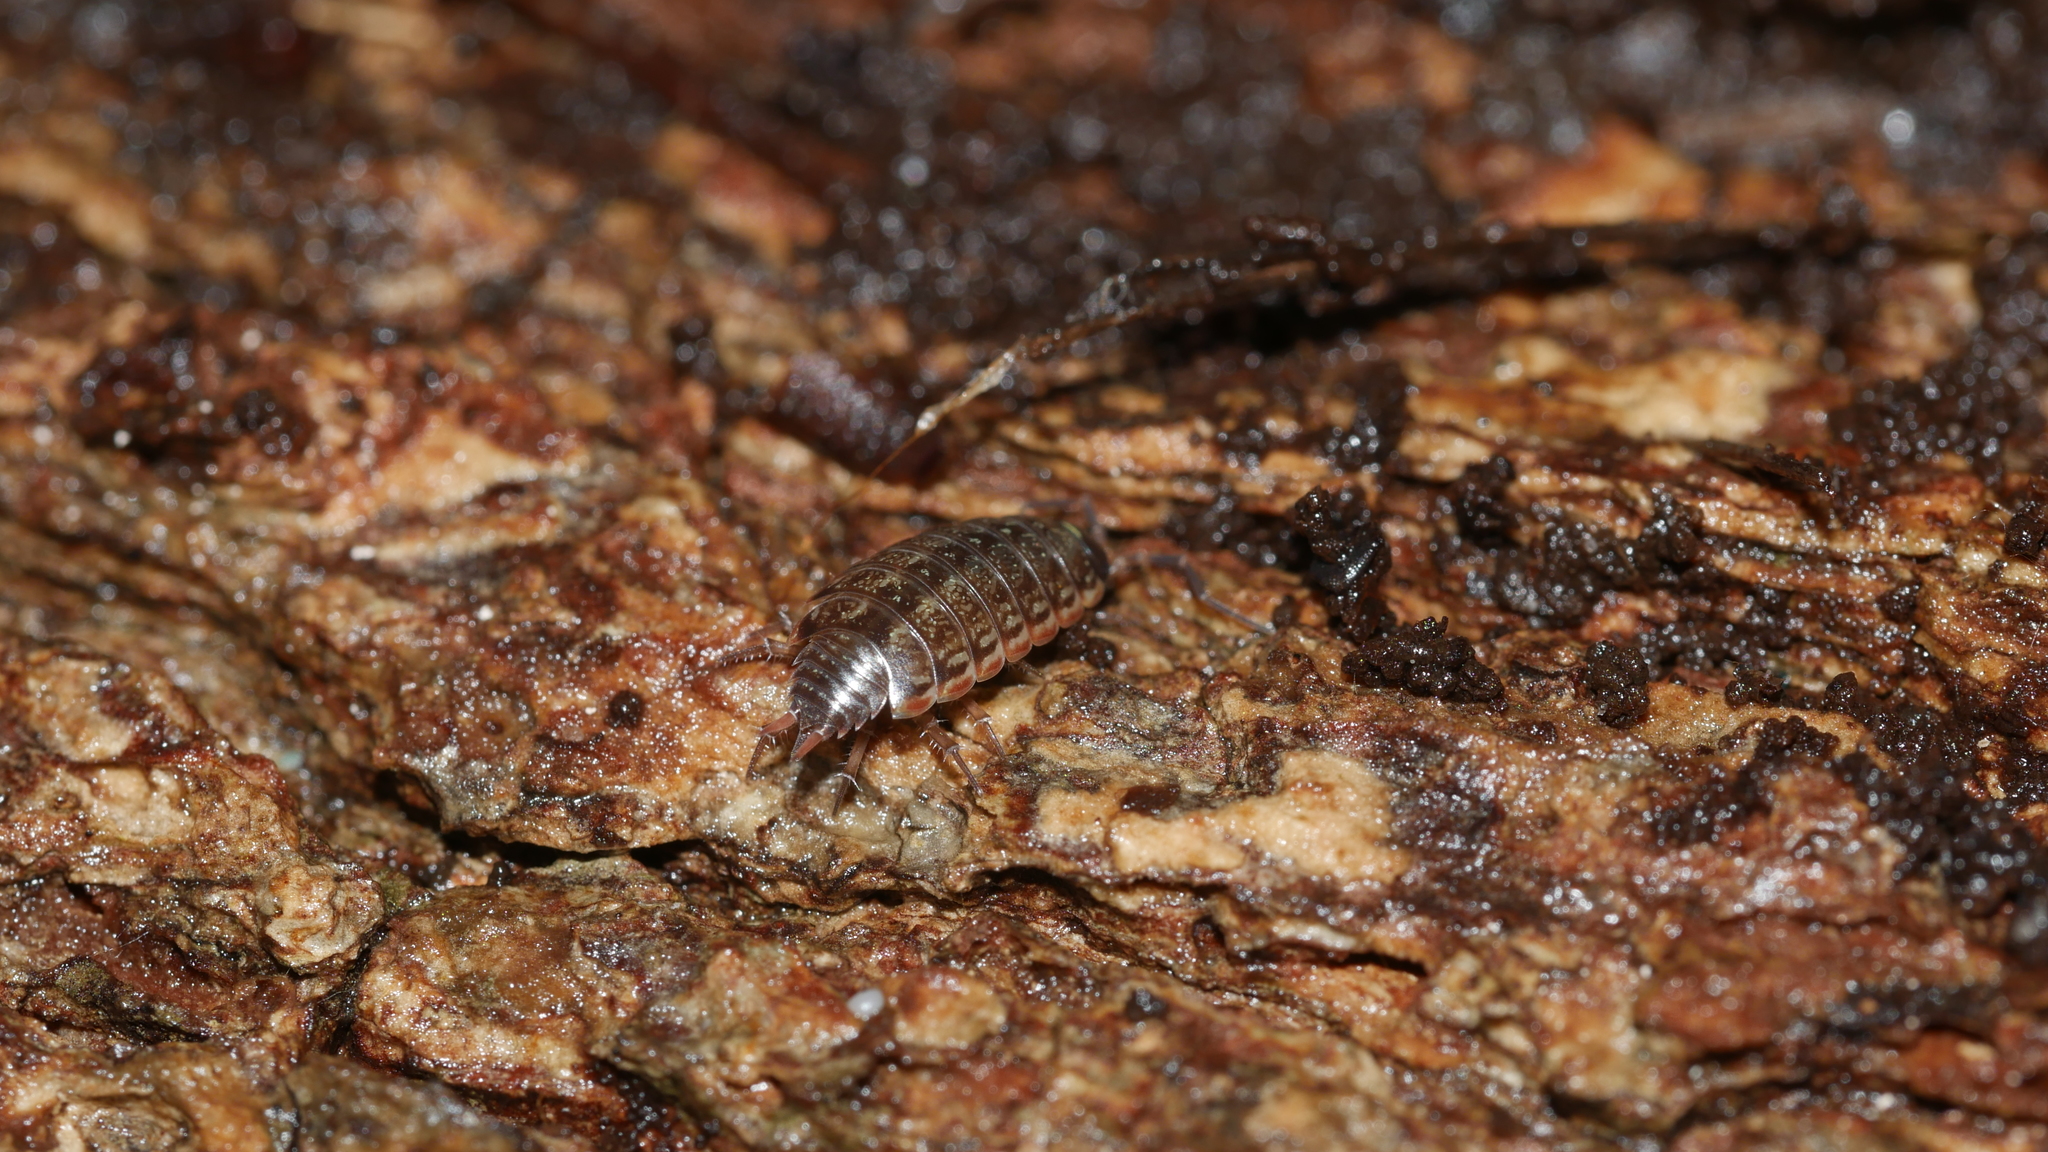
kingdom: Animalia
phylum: Arthropoda
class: Malacostraca
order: Isopoda
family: Philosciidae
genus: Philoscia
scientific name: Philoscia muscorum
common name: Common striped woodlouse
